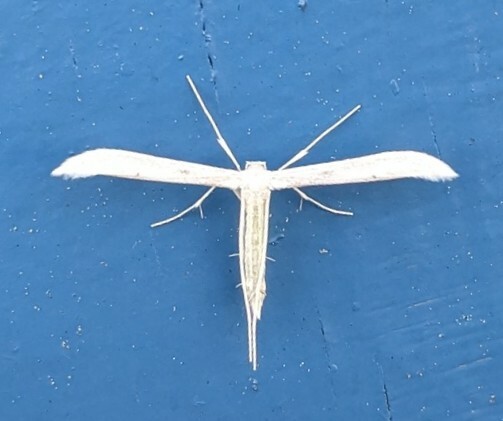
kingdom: Animalia
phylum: Arthropoda
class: Insecta
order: Lepidoptera
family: Pterophoridae
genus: Hellinsia
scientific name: Hellinsia homodactylus
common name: Plain plume moth
